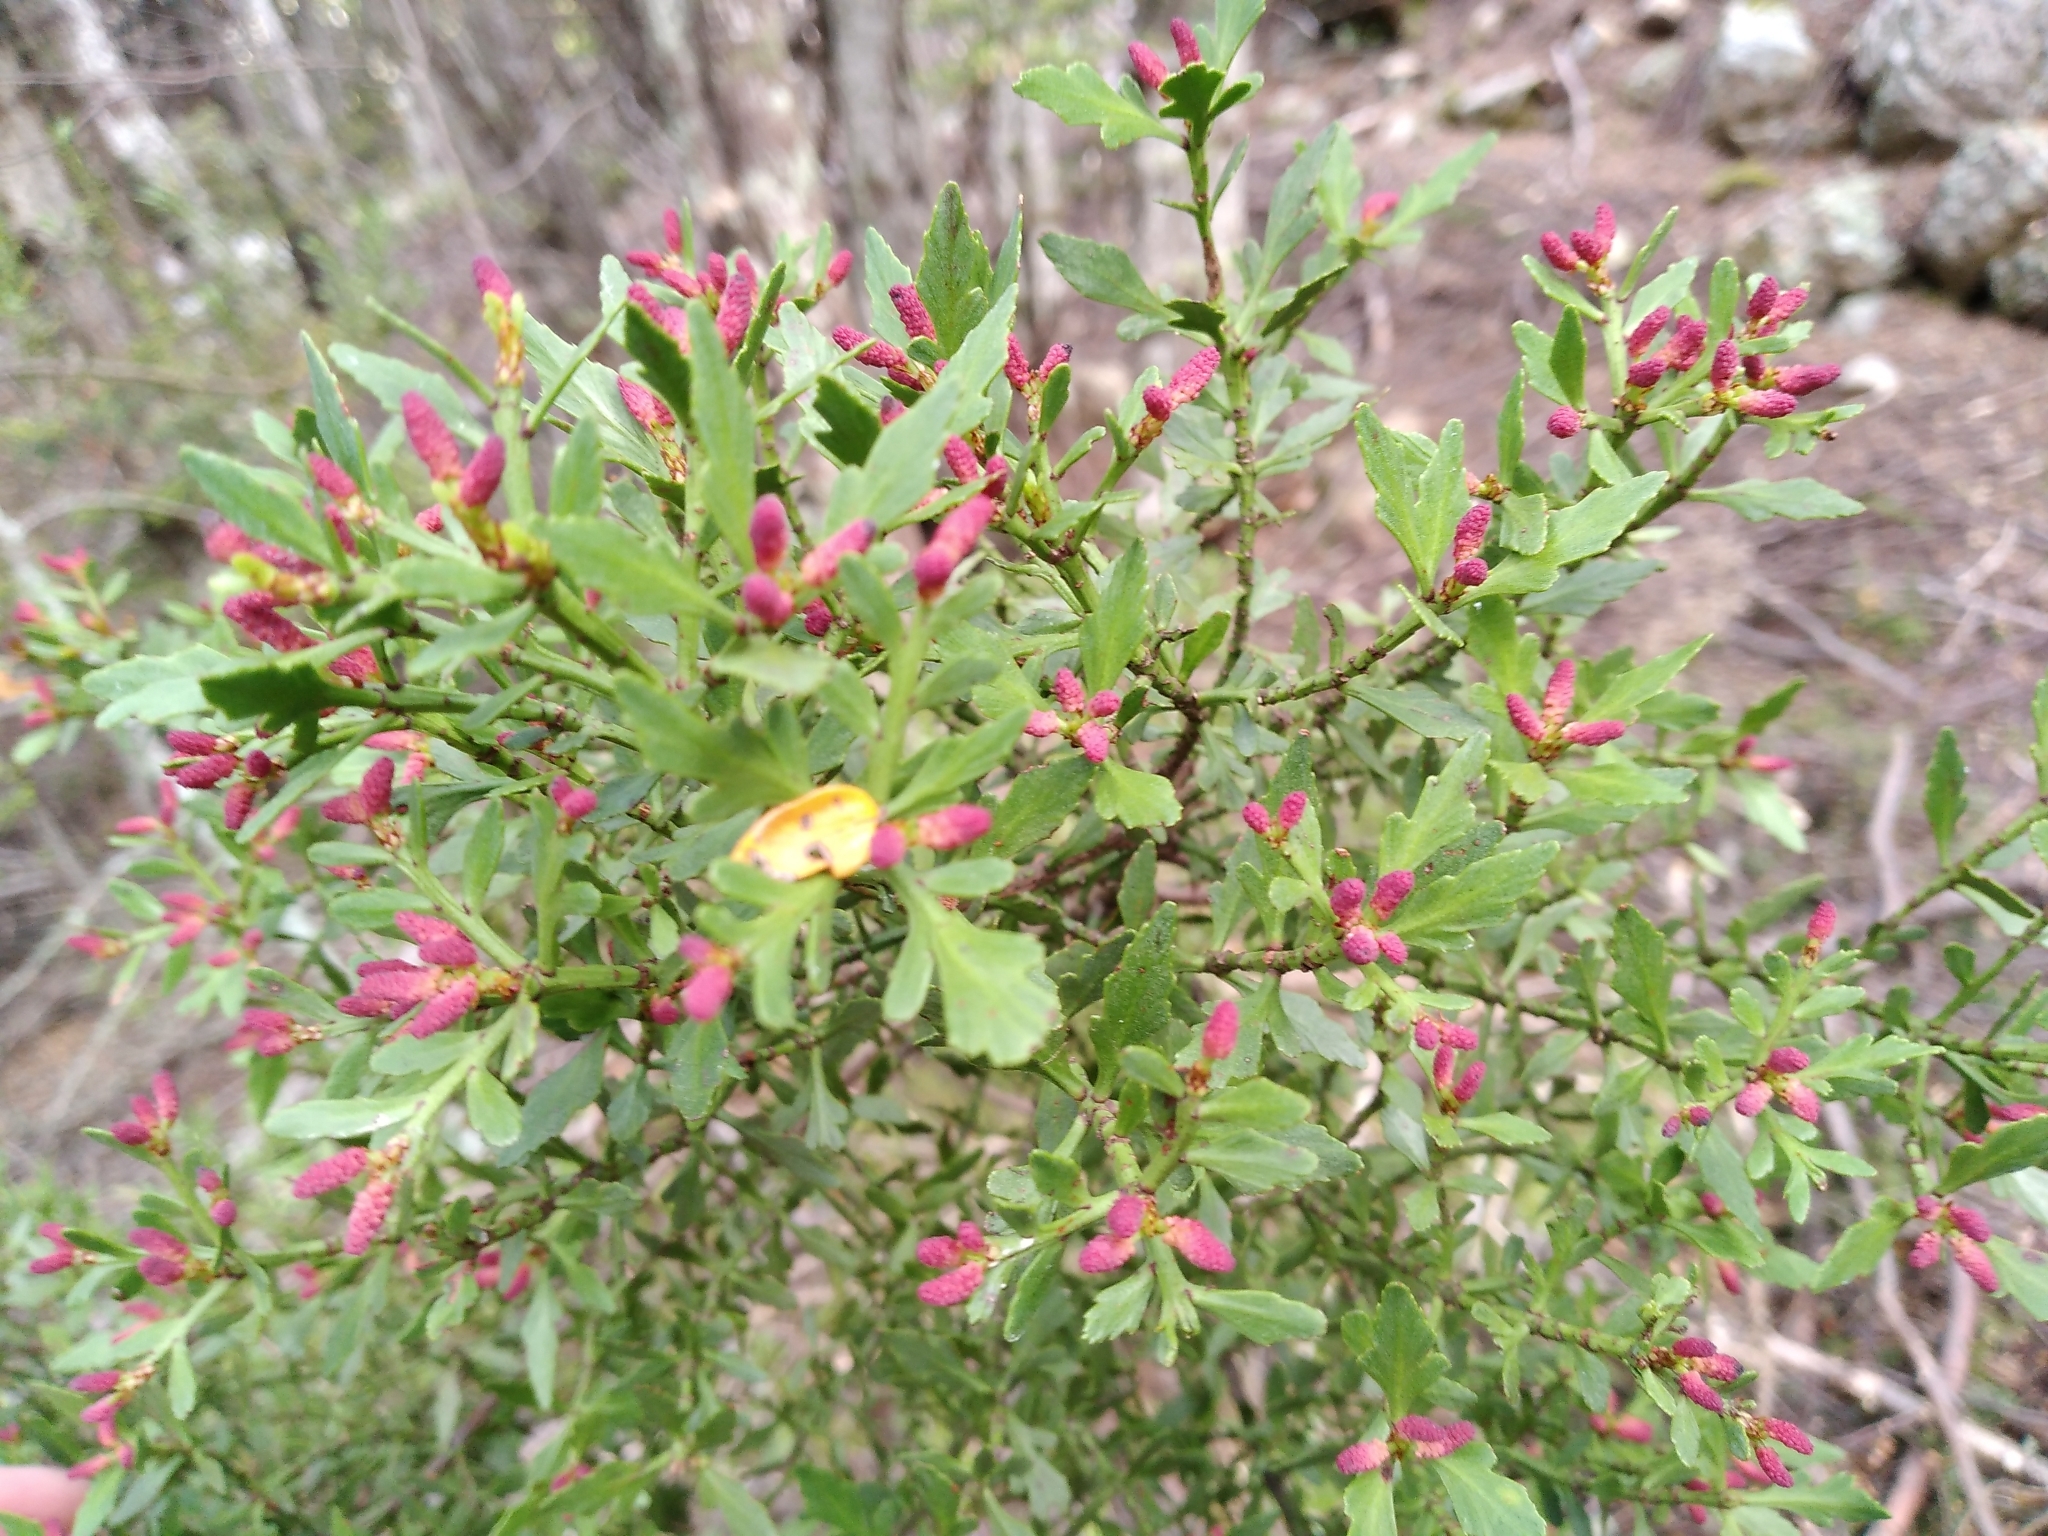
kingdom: Plantae
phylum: Tracheophyta
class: Pinopsida
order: Pinales
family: Phyllocladaceae
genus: Phyllocladus
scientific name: Phyllocladus trichomanoides
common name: Celery pine
